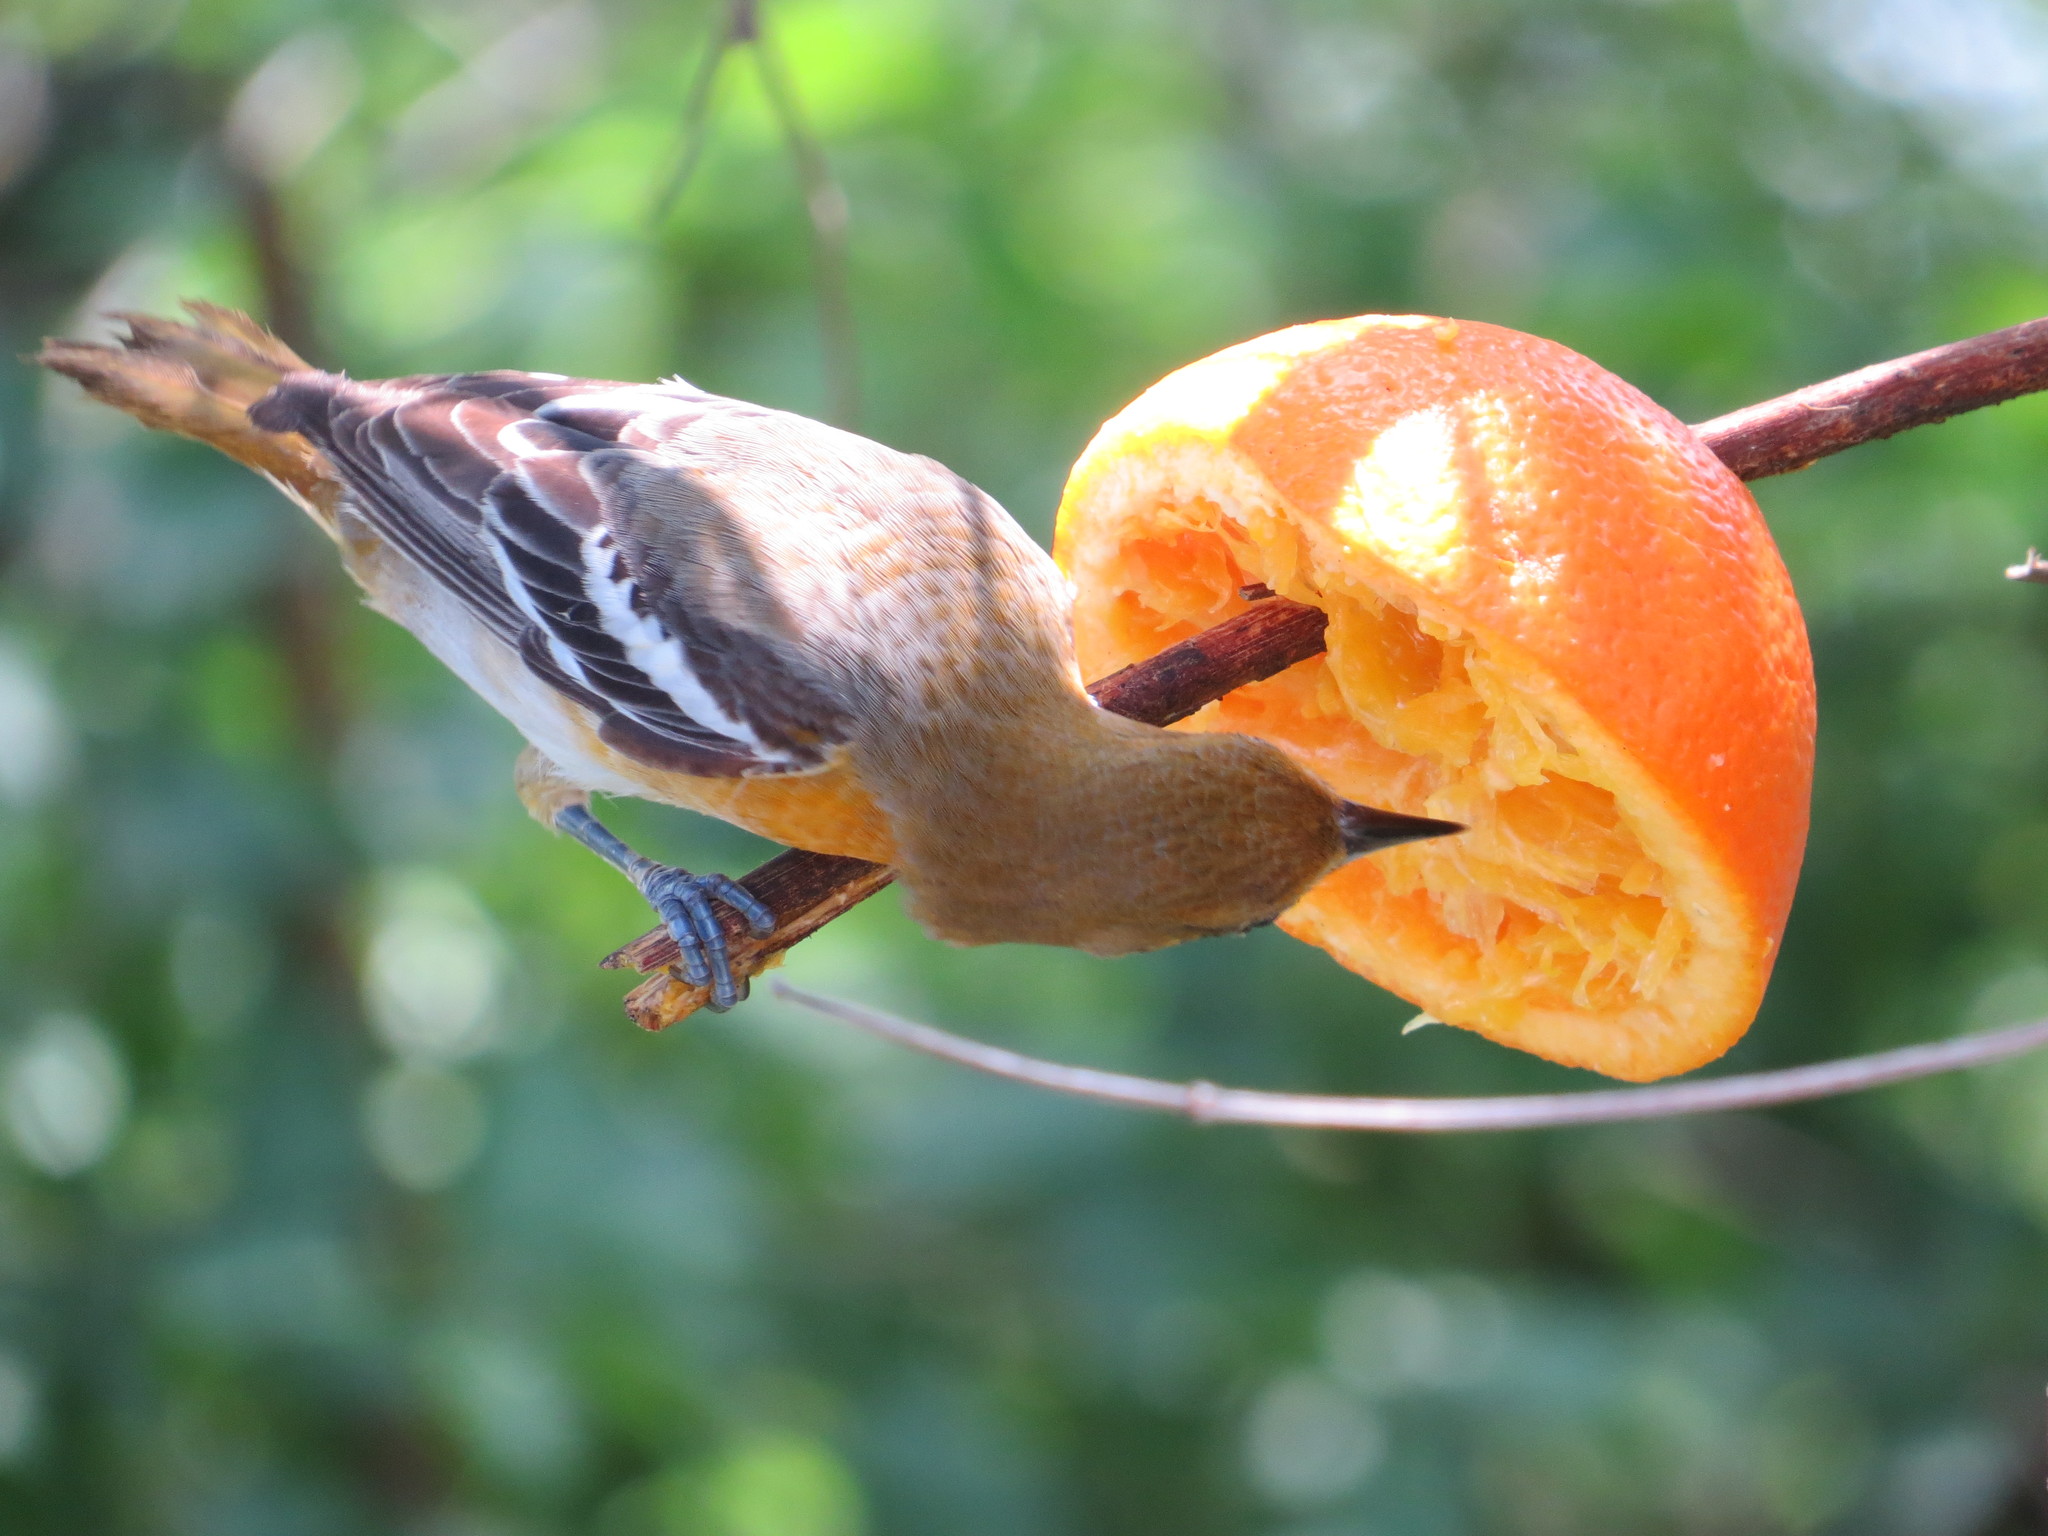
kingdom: Animalia
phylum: Chordata
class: Aves
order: Passeriformes
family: Icteridae
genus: Icterus
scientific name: Icterus galbula
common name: Baltimore oriole
